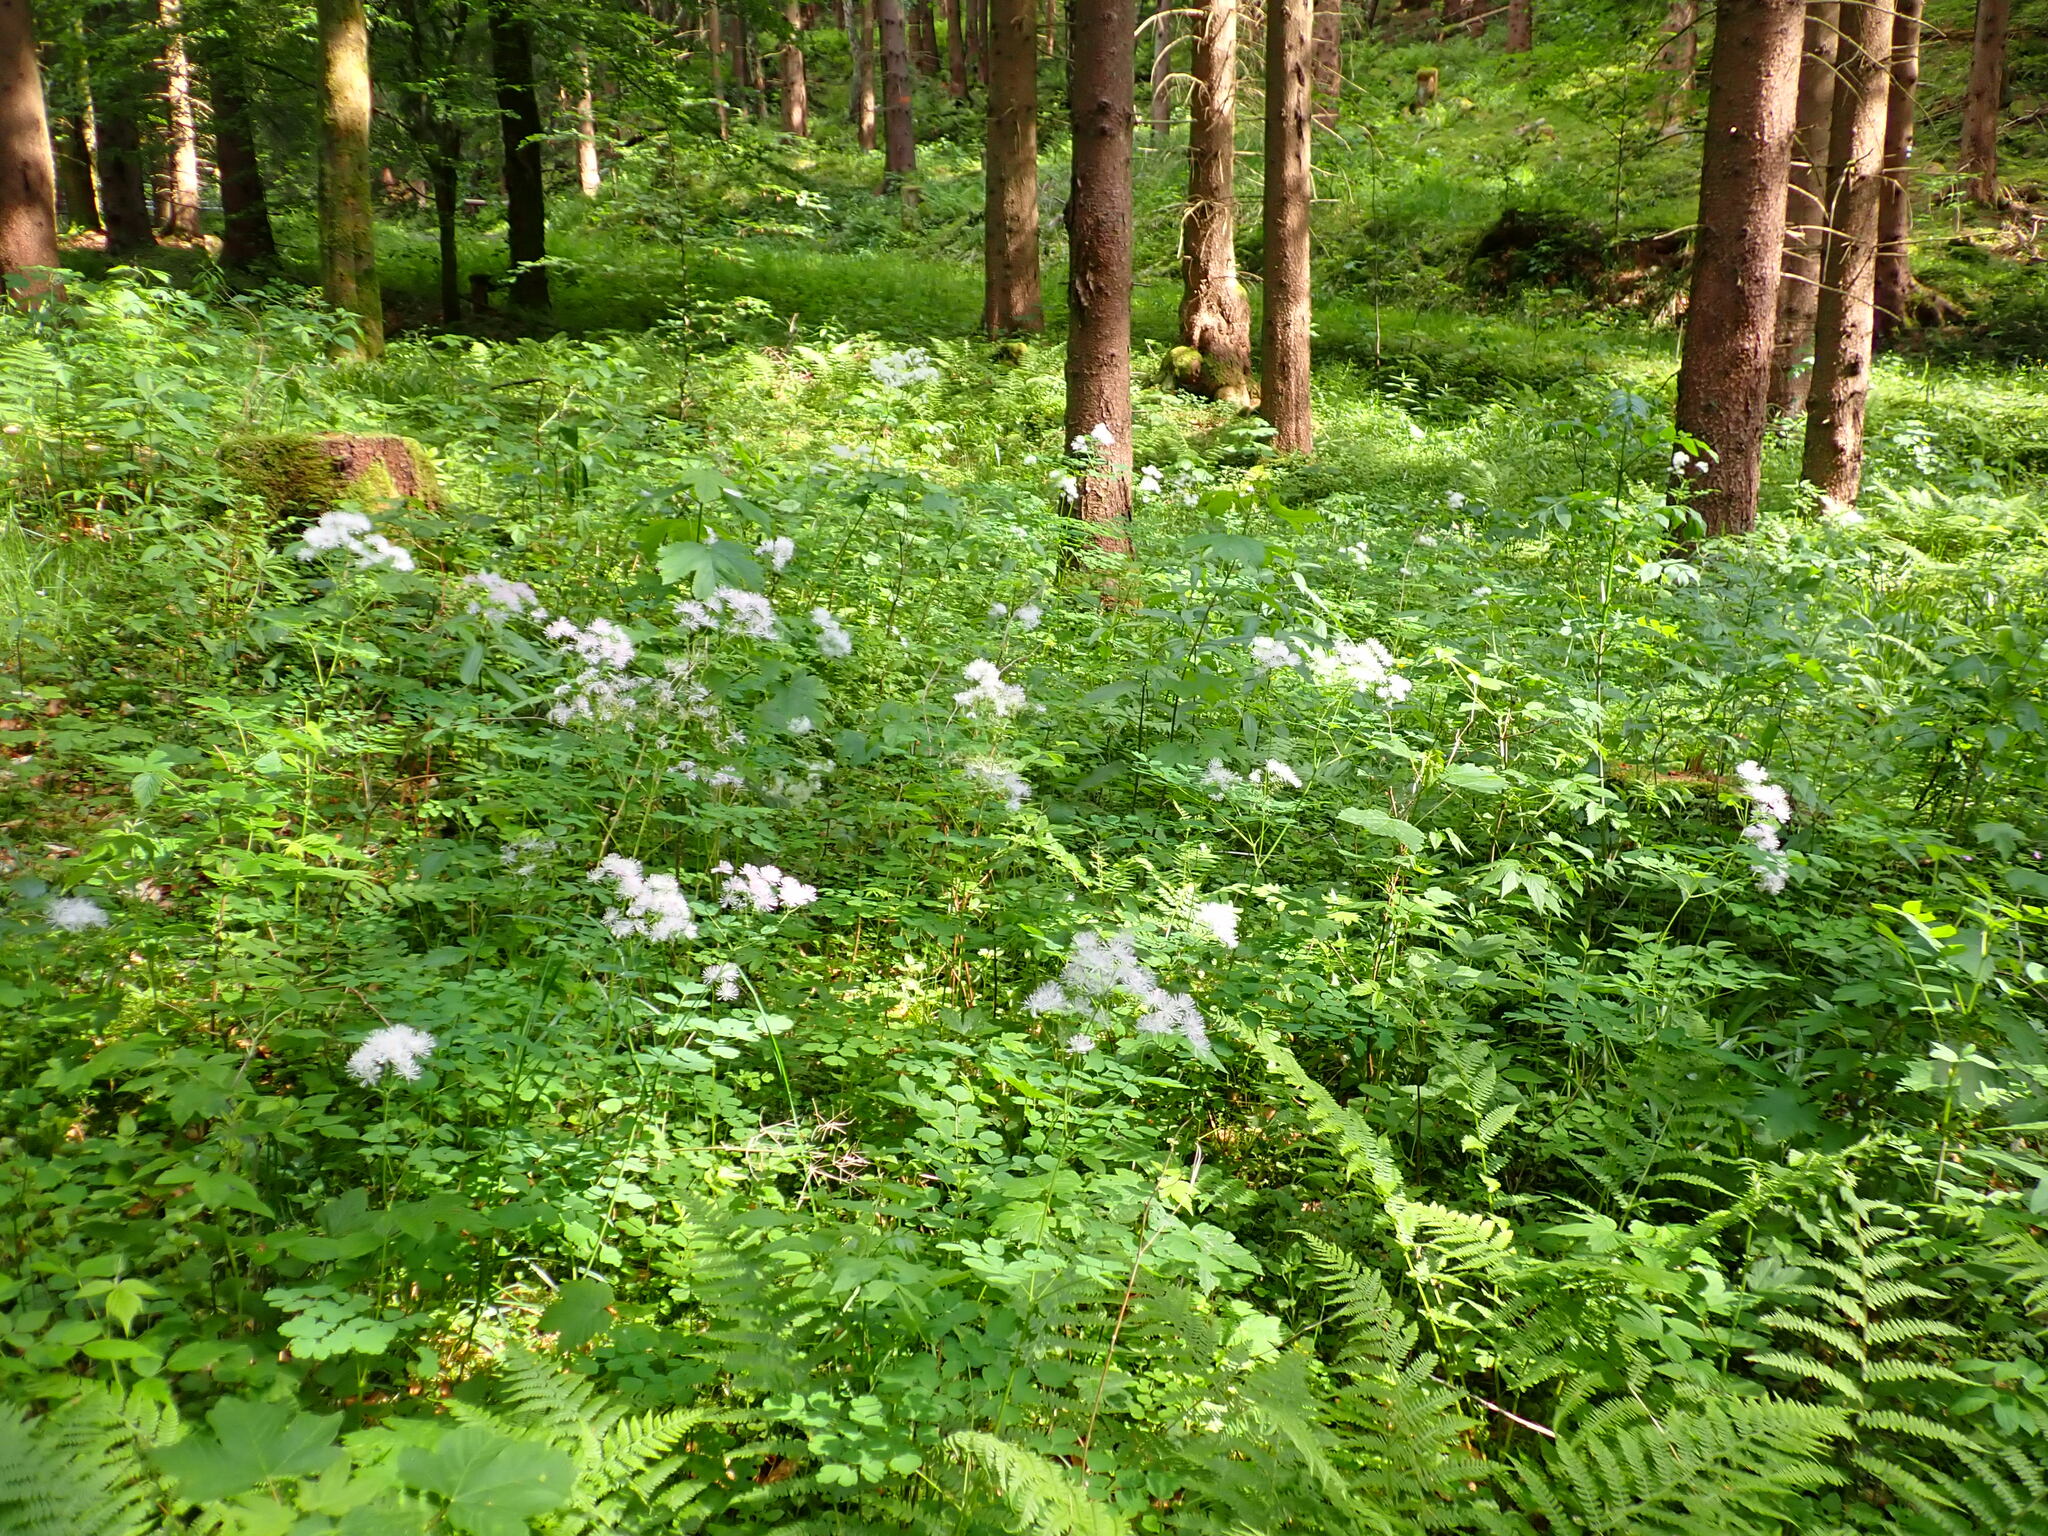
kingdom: Plantae
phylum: Tracheophyta
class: Magnoliopsida
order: Ranunculales
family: Ranunculaceae
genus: Thalictrum
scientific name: Thalictrum aquilegiifolium
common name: French meadow-rue
